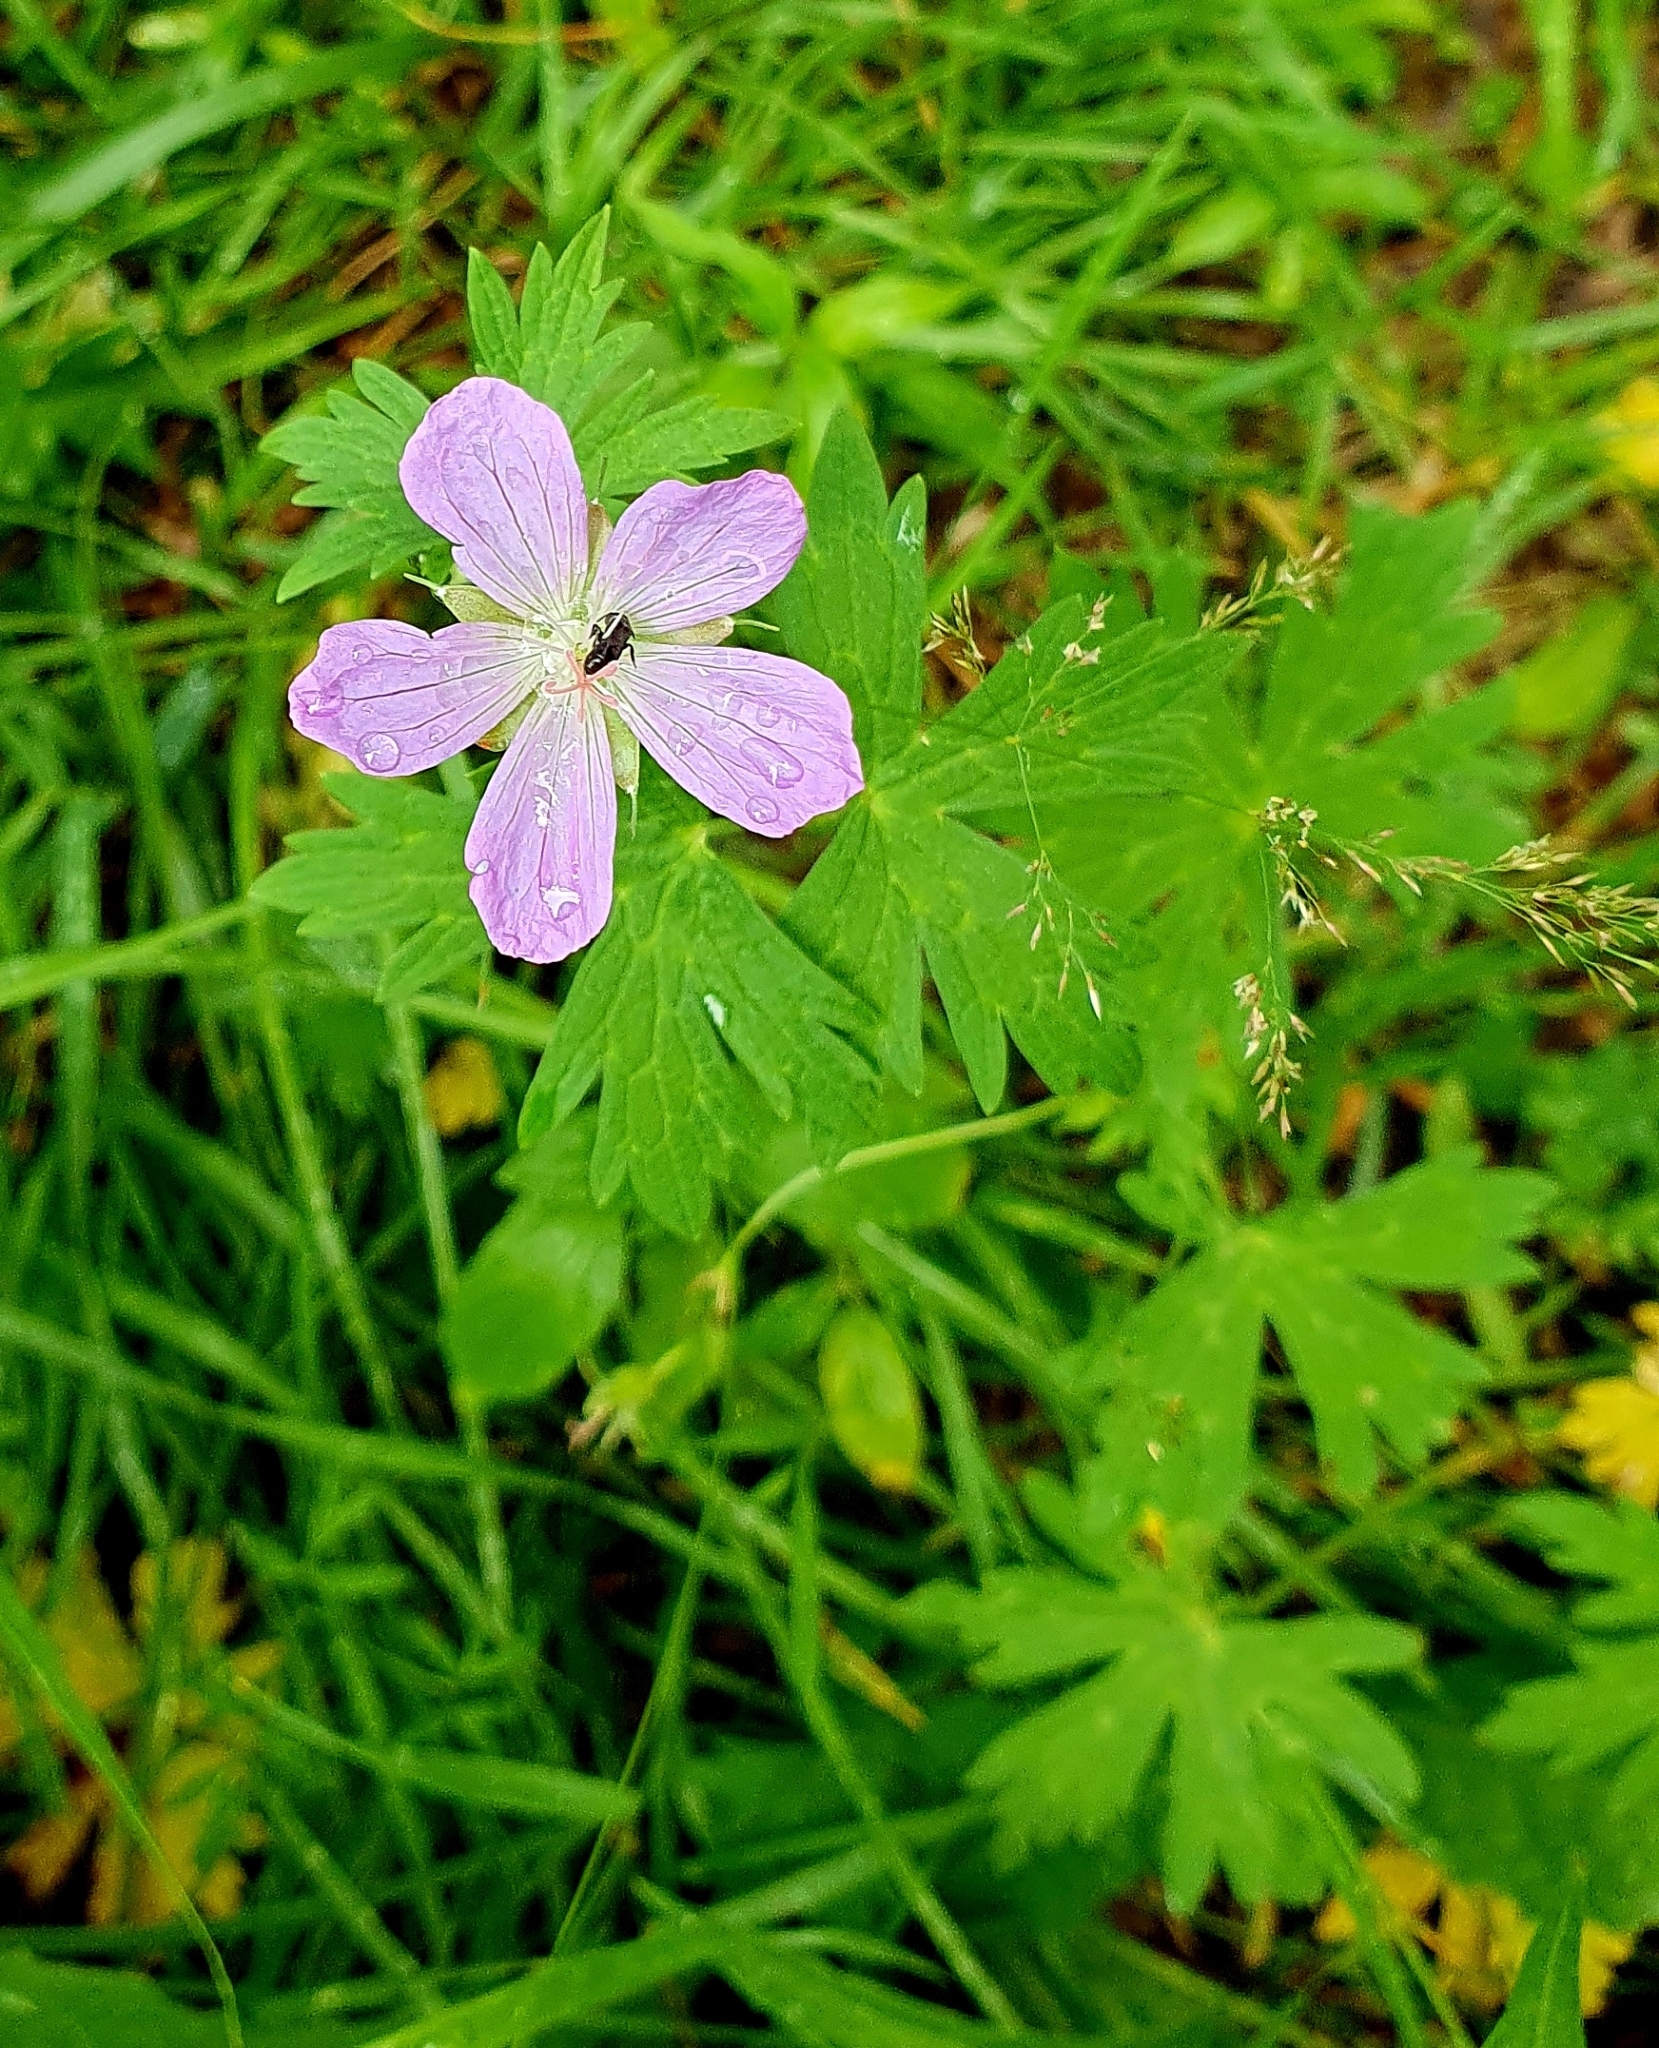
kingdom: Plantae
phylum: Tracheophyta
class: Magnoliopsida
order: Geraniales
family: Geraniaceae
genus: Geranium
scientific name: Geranium collinum
